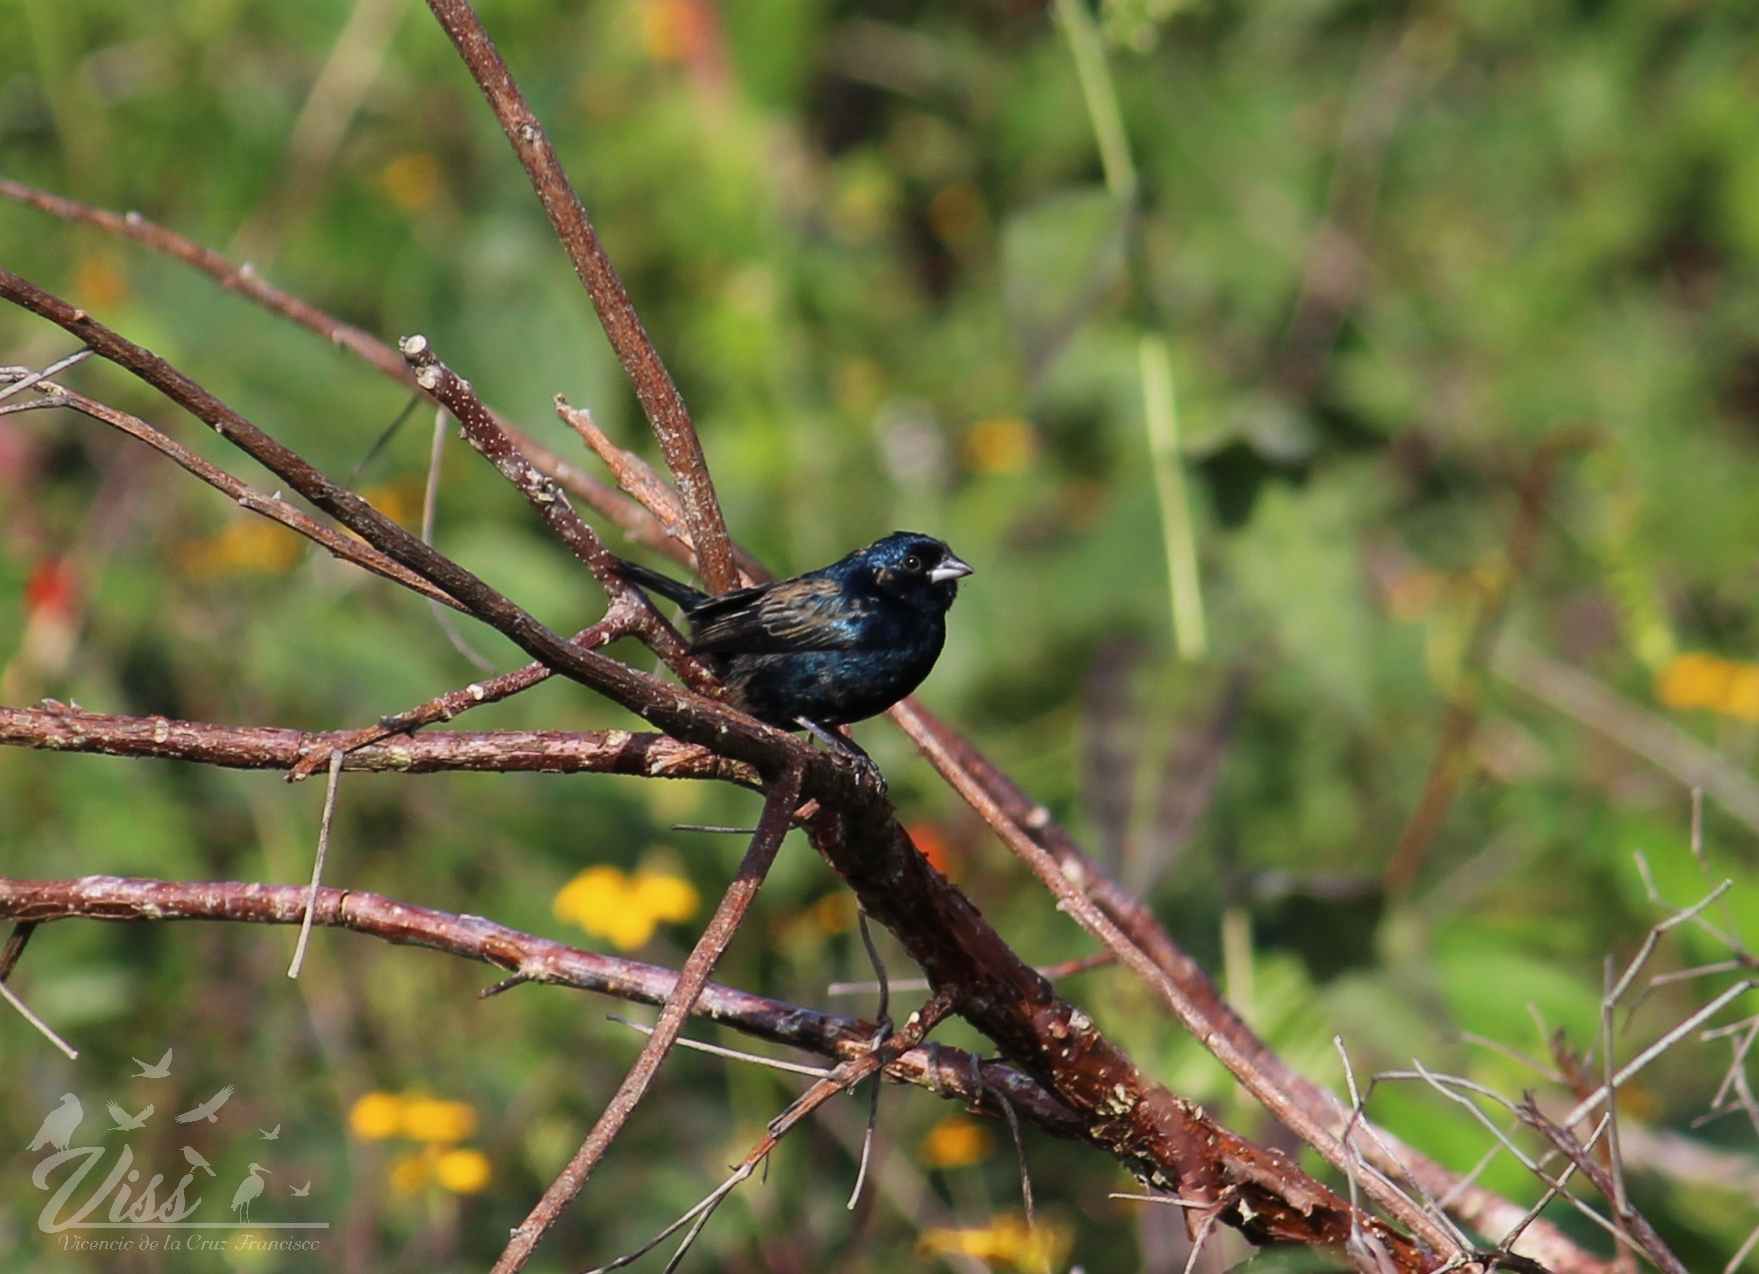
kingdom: Animalia
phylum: Chordata
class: Aves
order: Passeriformes
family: Thraupidae
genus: Volatinia
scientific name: Volatinia jacarina
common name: Blue-black grassquit
